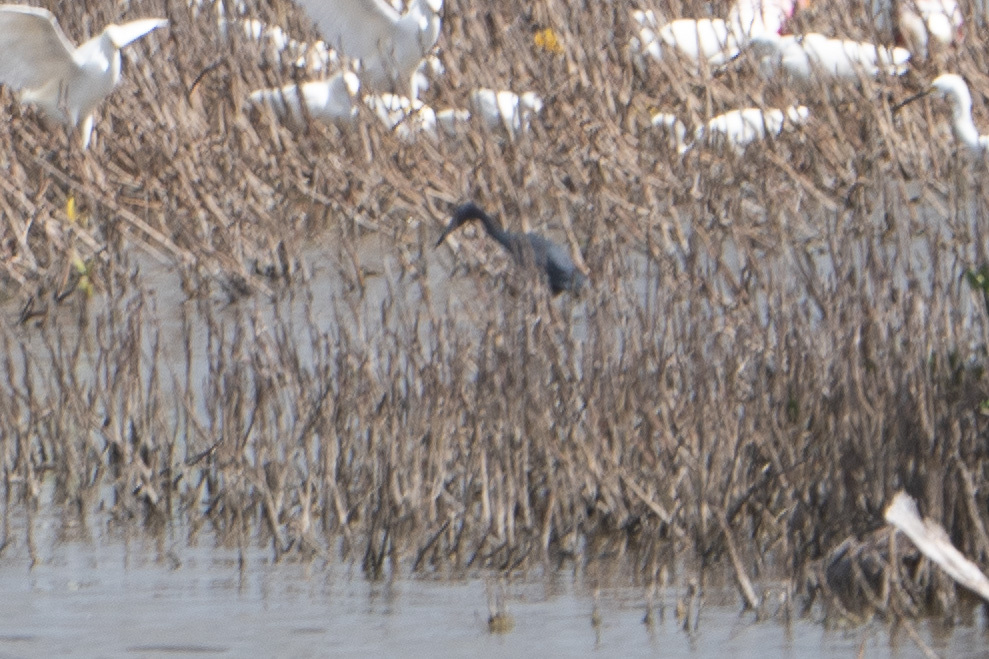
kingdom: Animalia
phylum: Chordata
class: Aves
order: Pelecaniformes
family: Ardeidae
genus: Egretta
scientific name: Egretta caerulea
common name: Little blue heron
